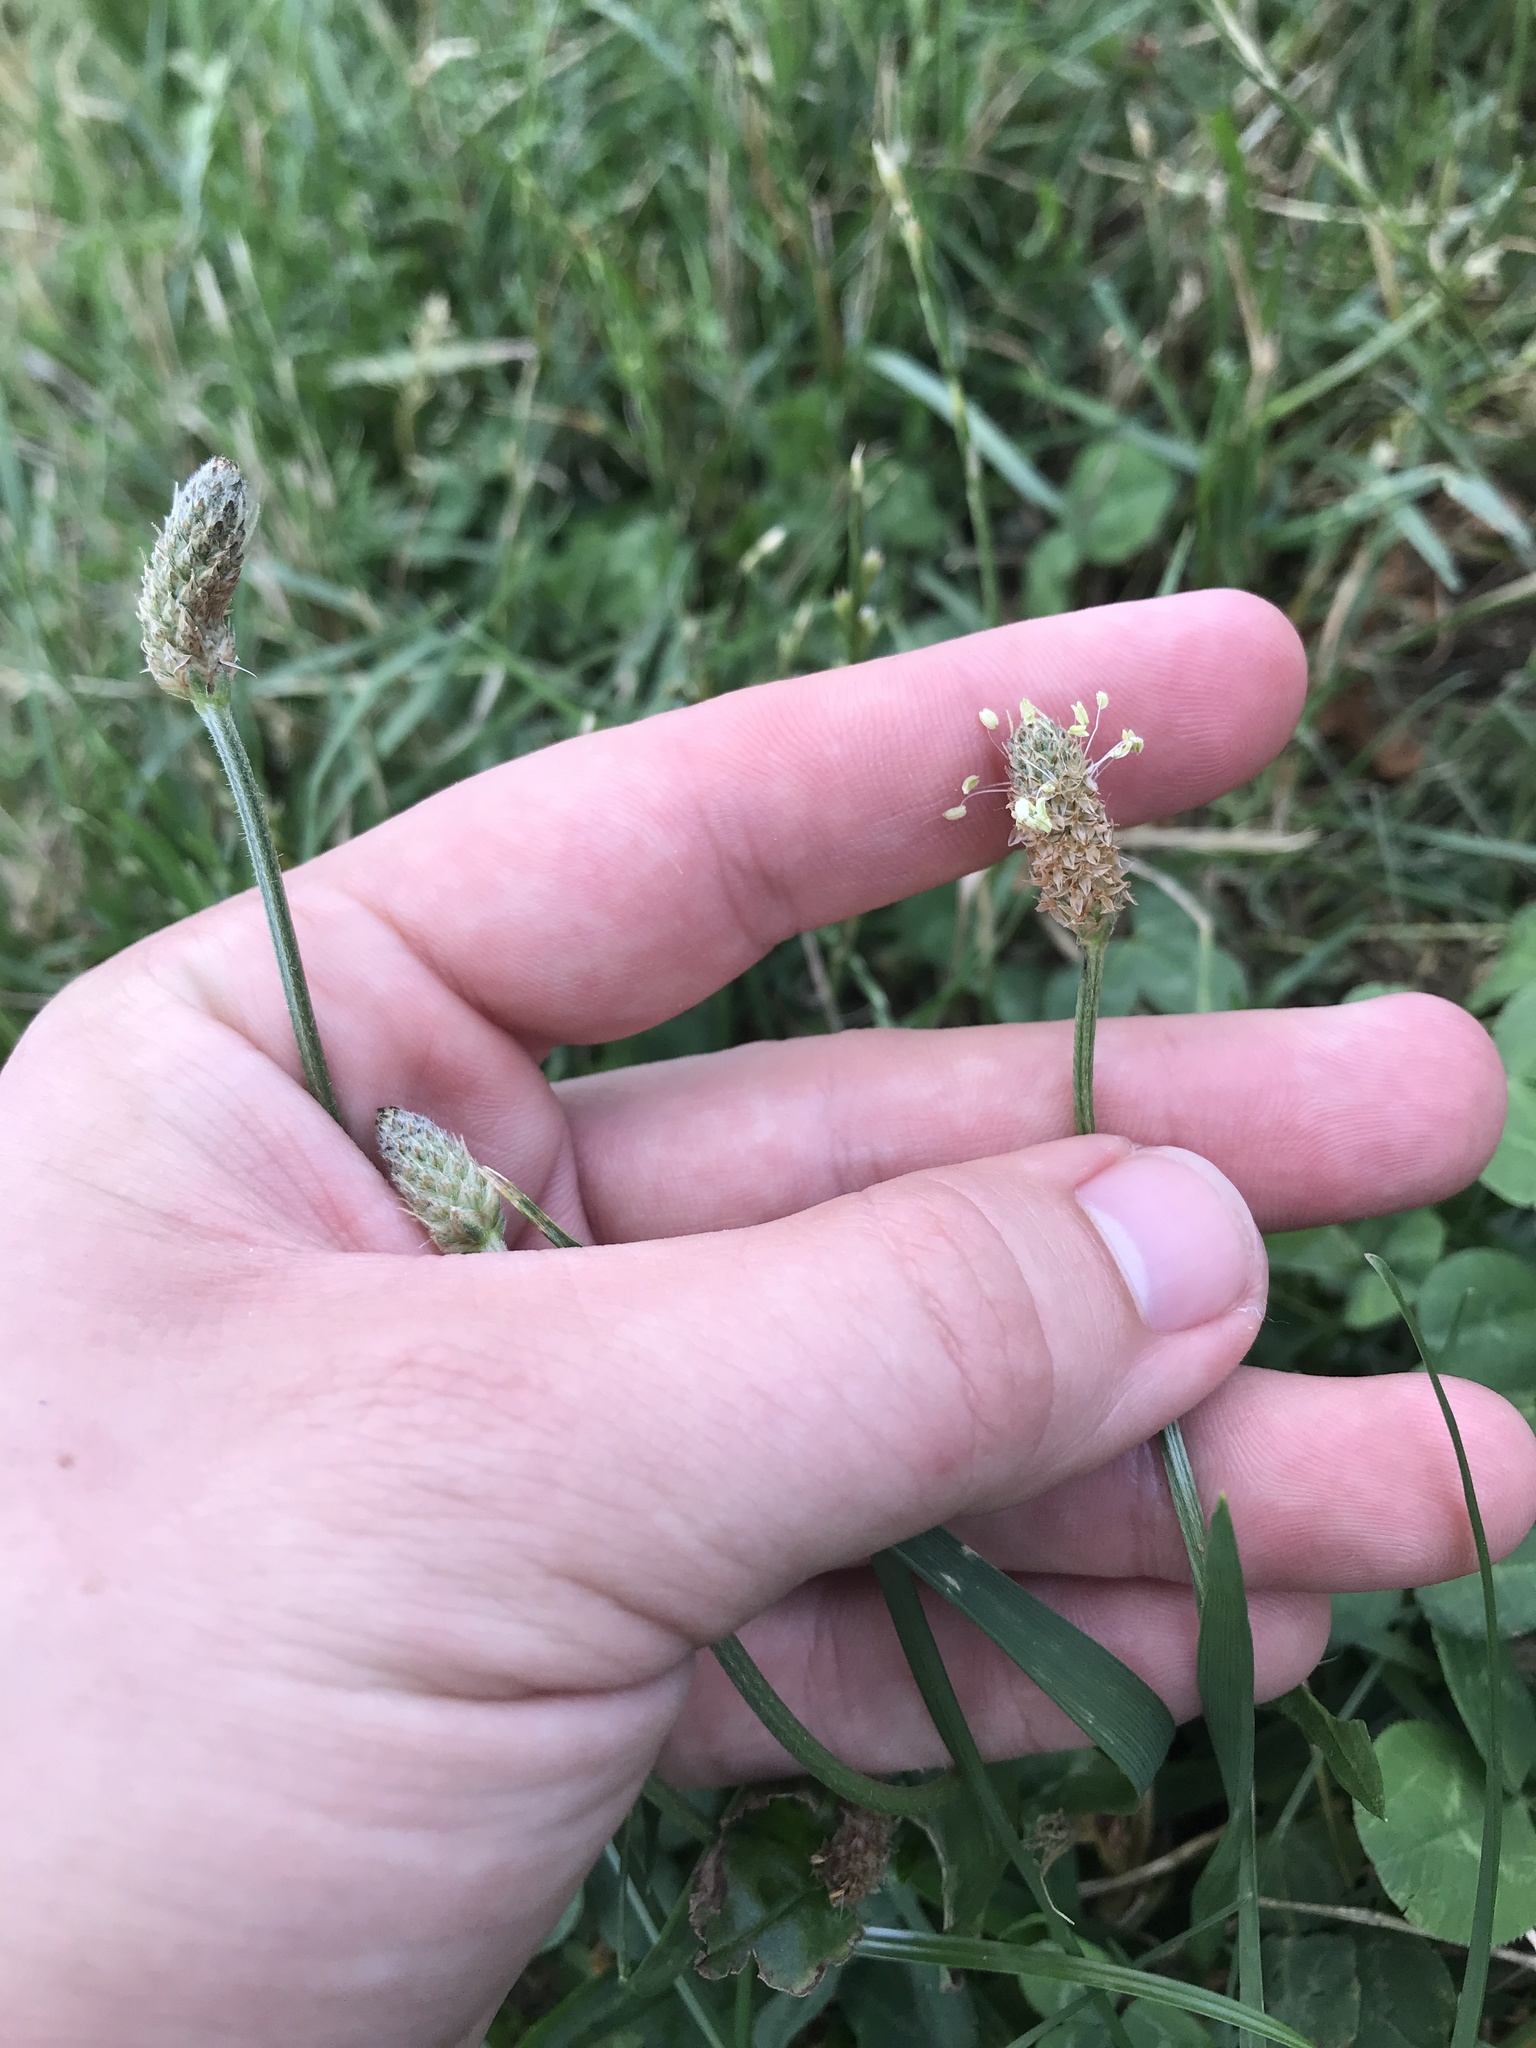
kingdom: Plantae
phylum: Tracheophyta
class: Magnoliopsida
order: Lamiales
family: Plantaginaceae
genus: Plantago
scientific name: Plantago lanceolata
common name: Ribwort plantain
